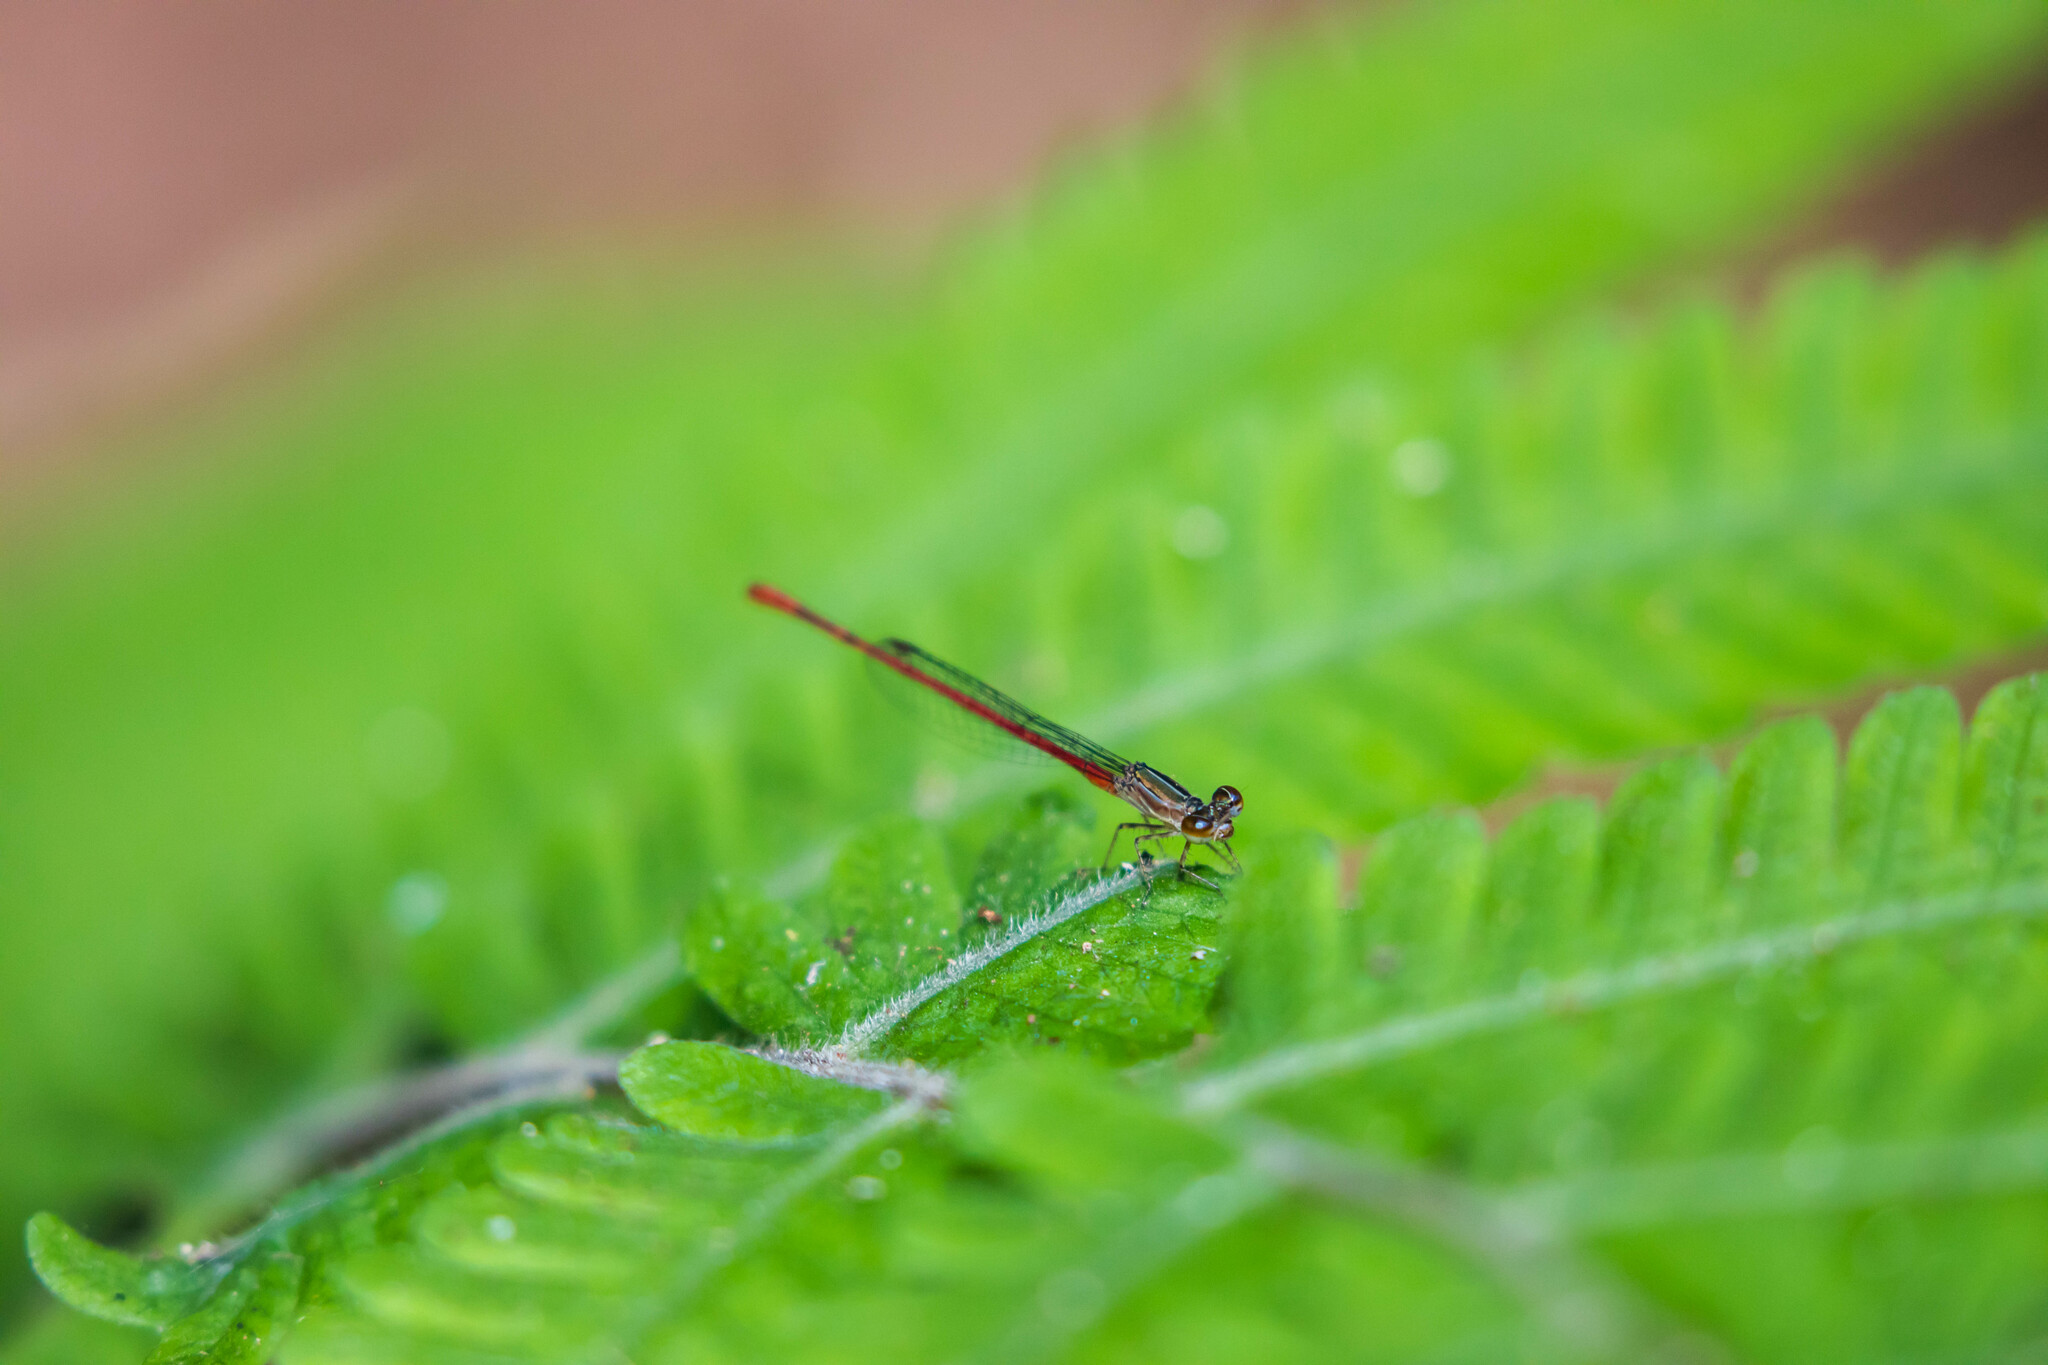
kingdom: Animalia
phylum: Arthropoda
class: Insecta
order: Odonata
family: Coenagrionidae
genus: Telebasis
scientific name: Telebasis filiola
